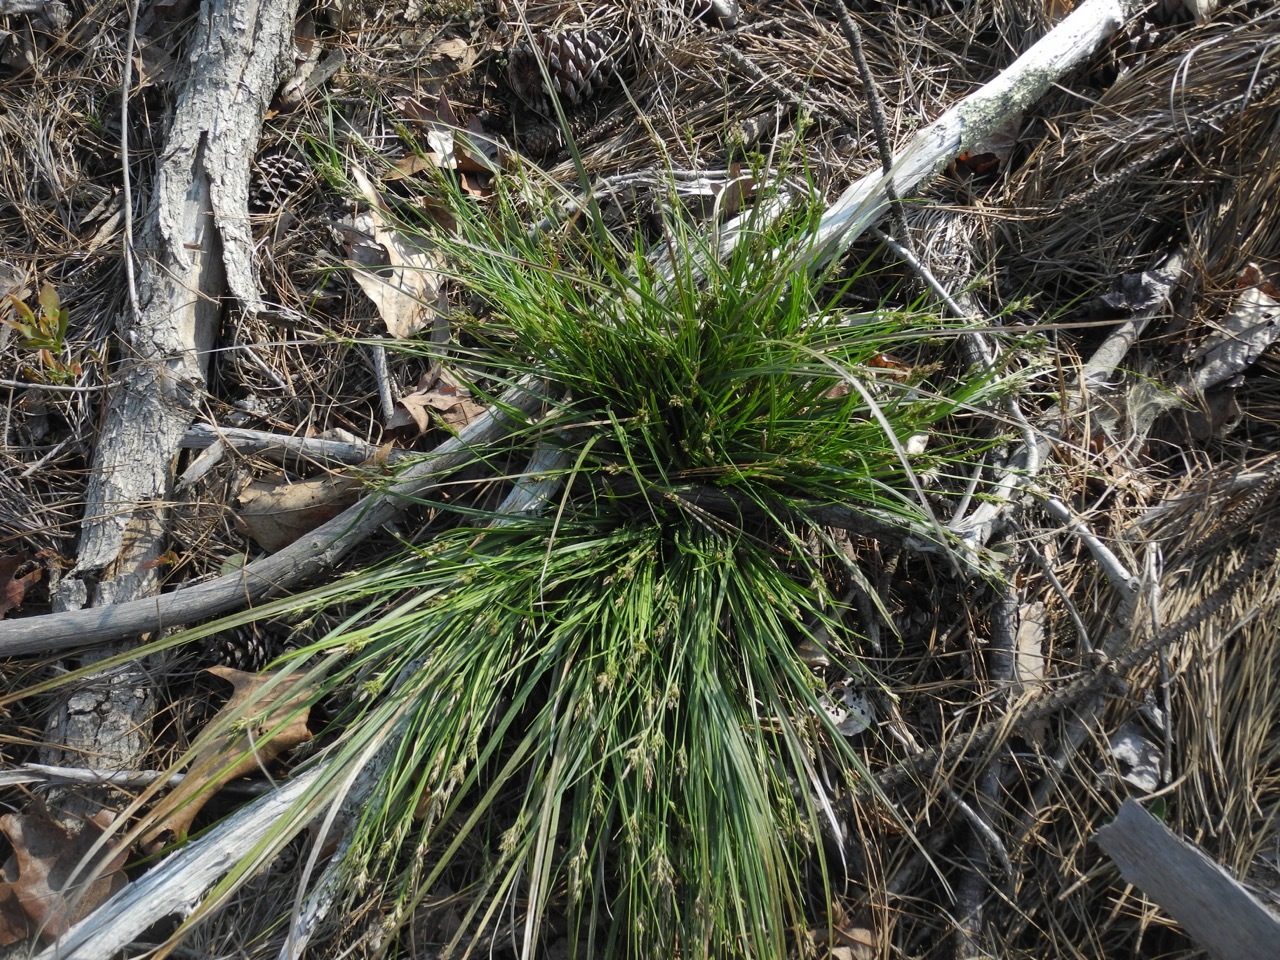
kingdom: Plantae
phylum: Tracheophyta
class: Liliopsida
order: Poales
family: Cyperaceae
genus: Carex
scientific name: Carex nigromarginata
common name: Black-edged sedge
